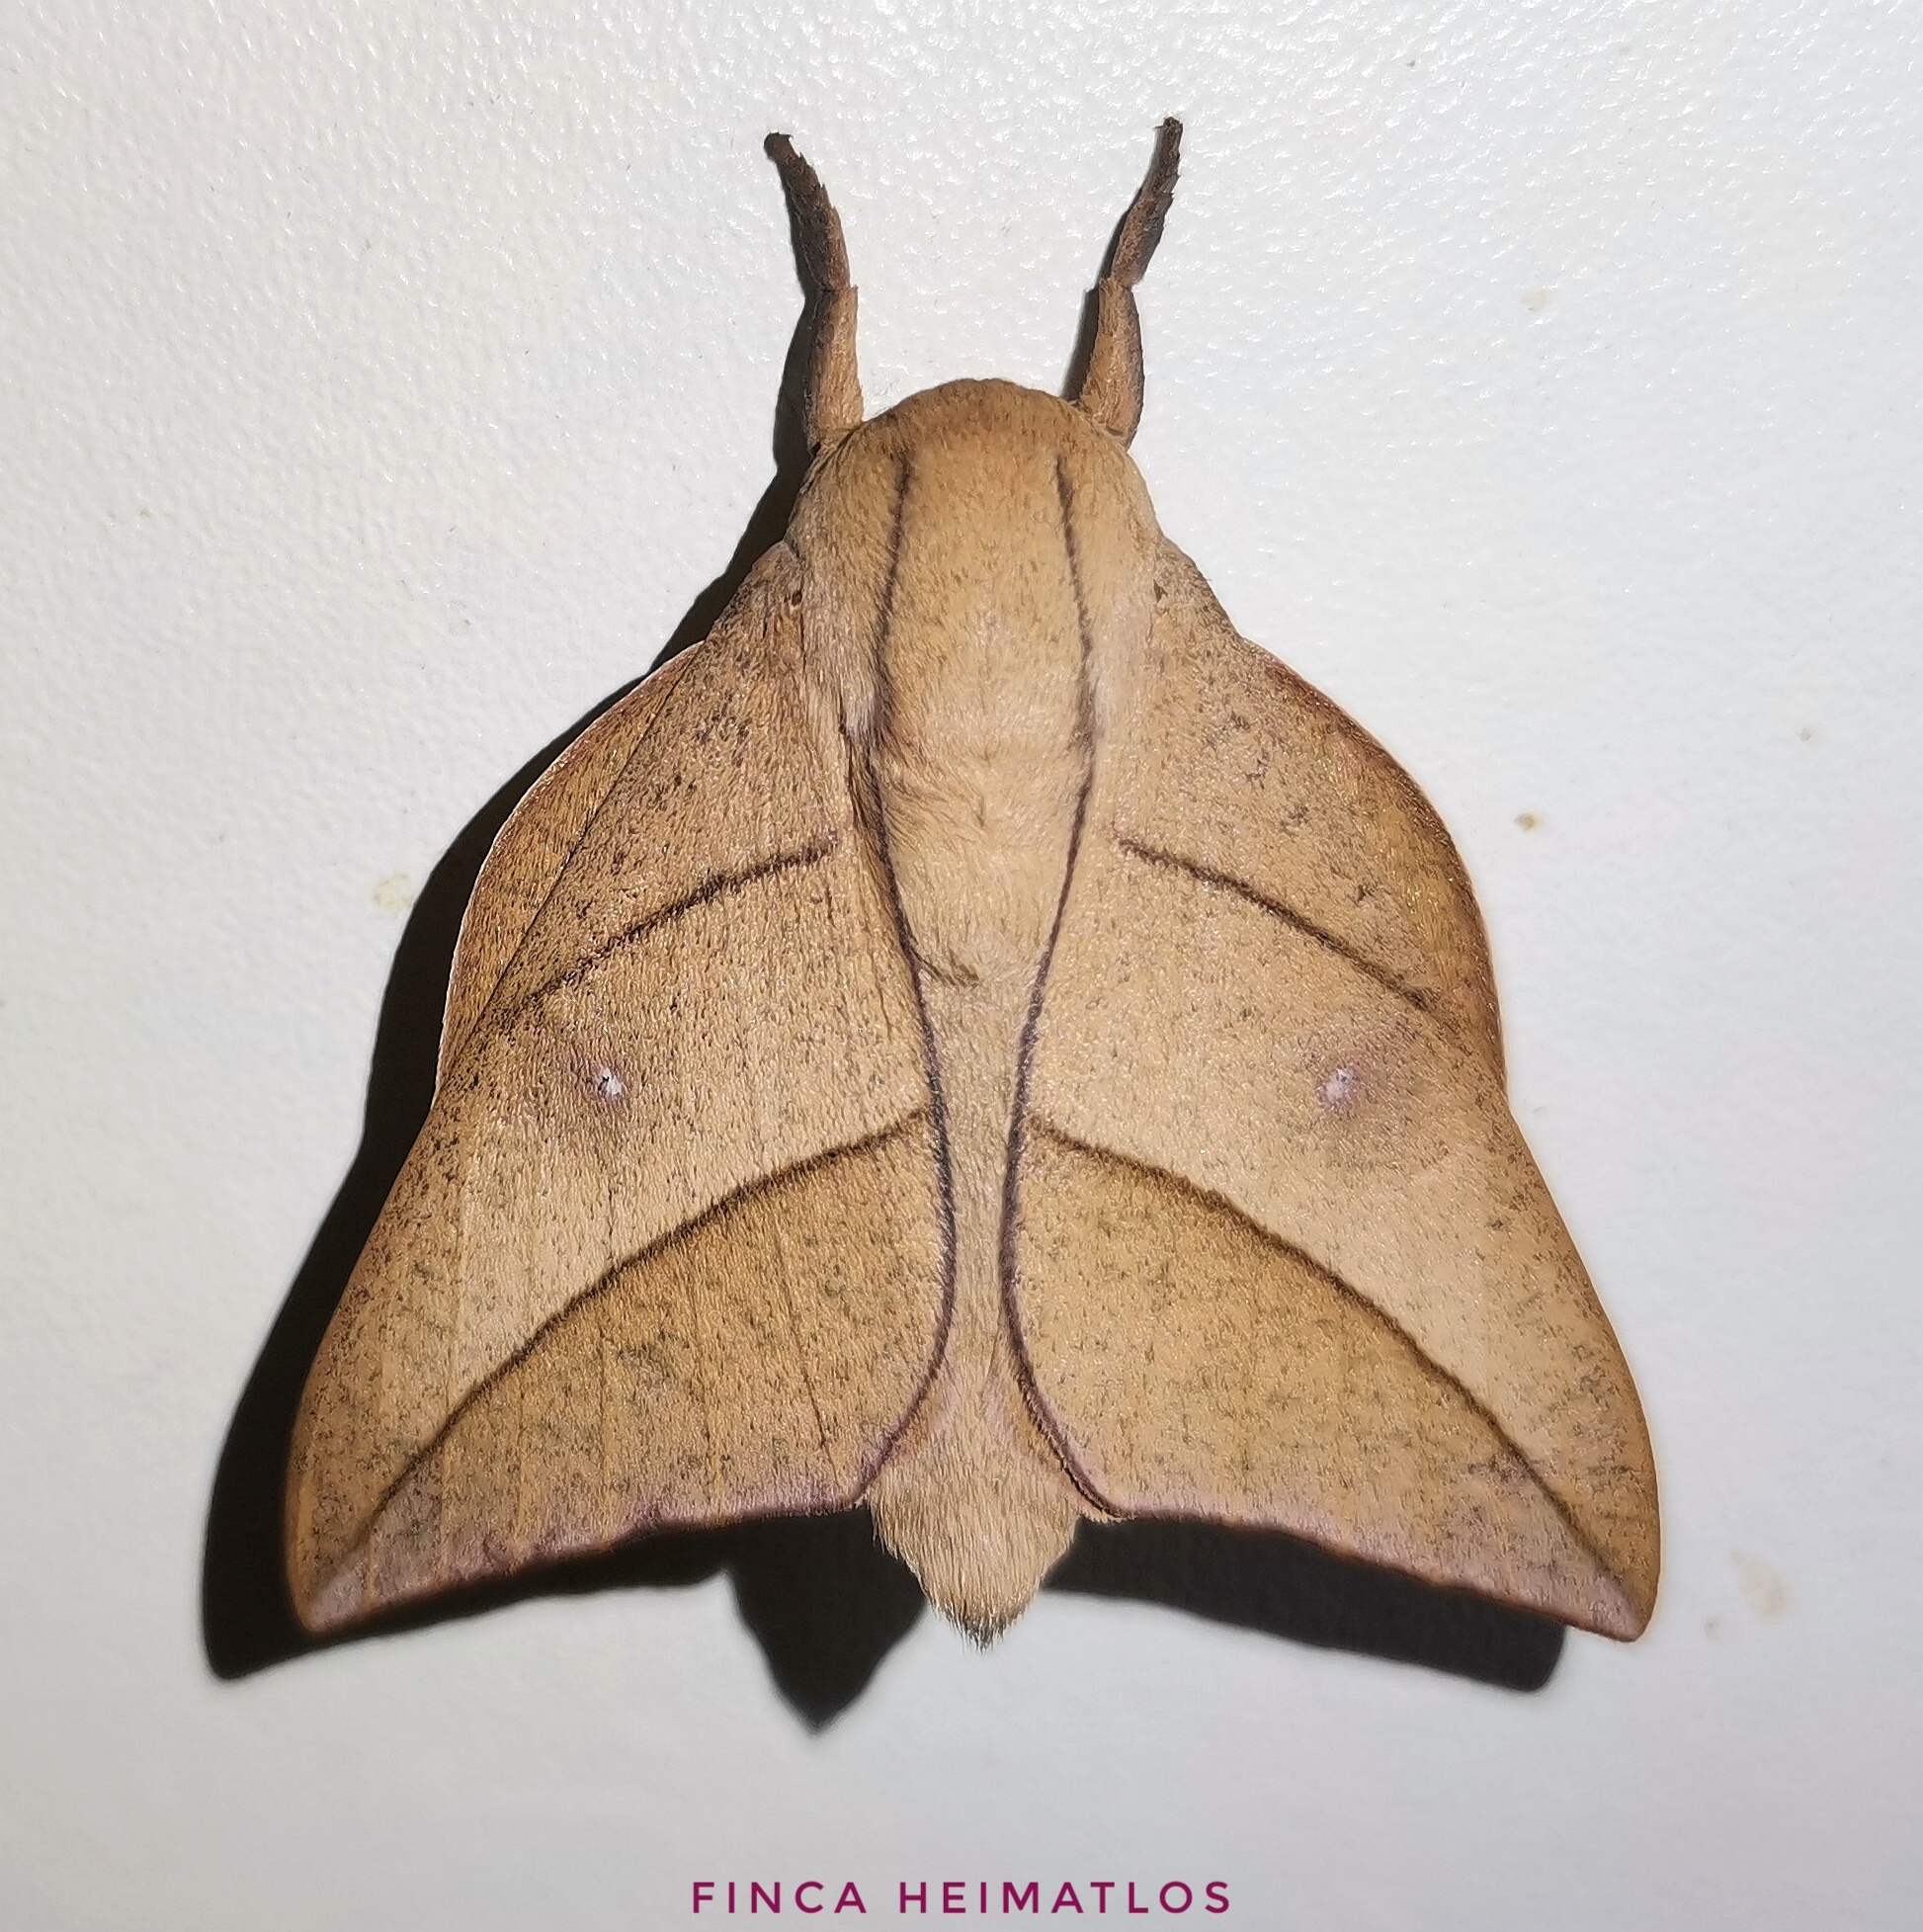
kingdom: Animalia
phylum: Arthropoda
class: Insecta
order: Lepidoptera
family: Saturniidae
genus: Adeloneivaia
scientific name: Adeloneivaia acuta
